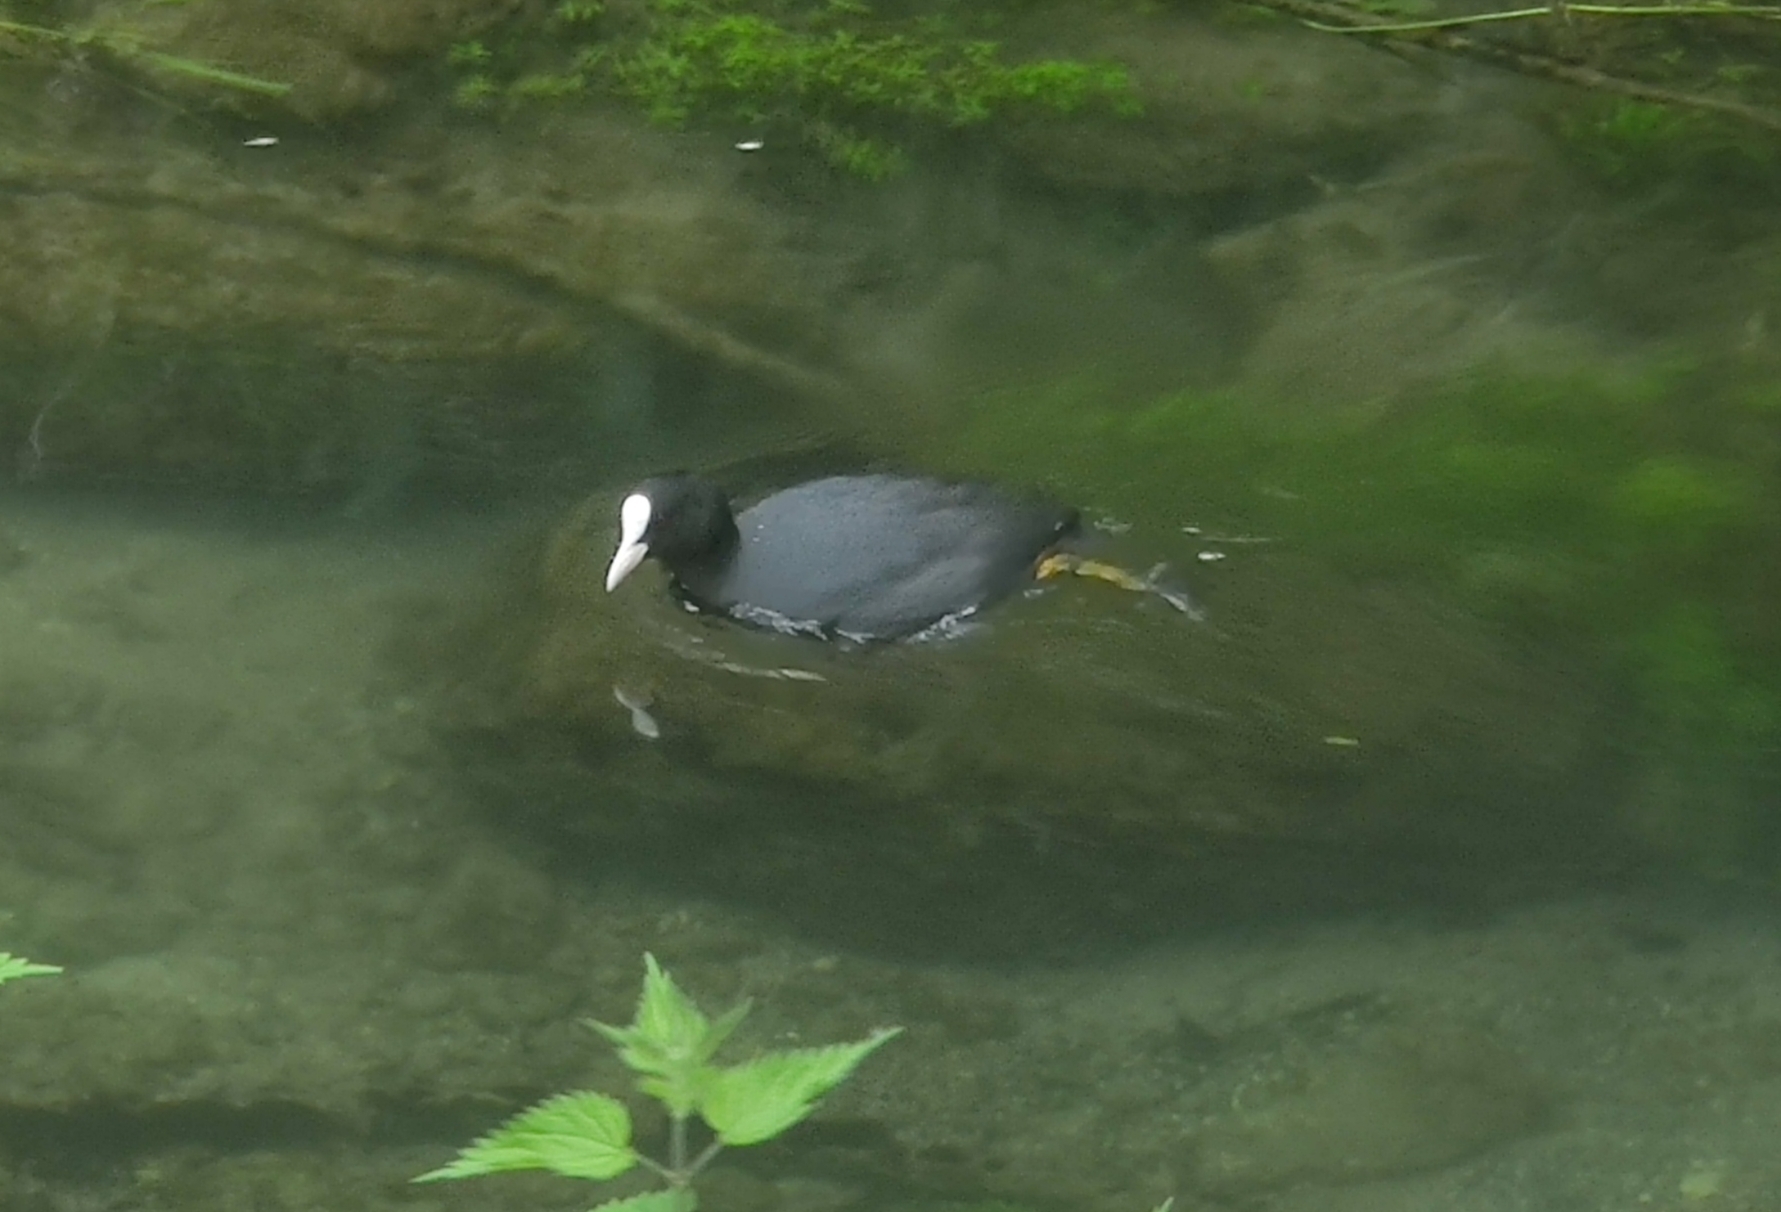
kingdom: Animalia
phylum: Chordata
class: Aves
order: Gruiformes
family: Rallidae
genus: Fulica
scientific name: Fulica atra
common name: Eurasian coot
